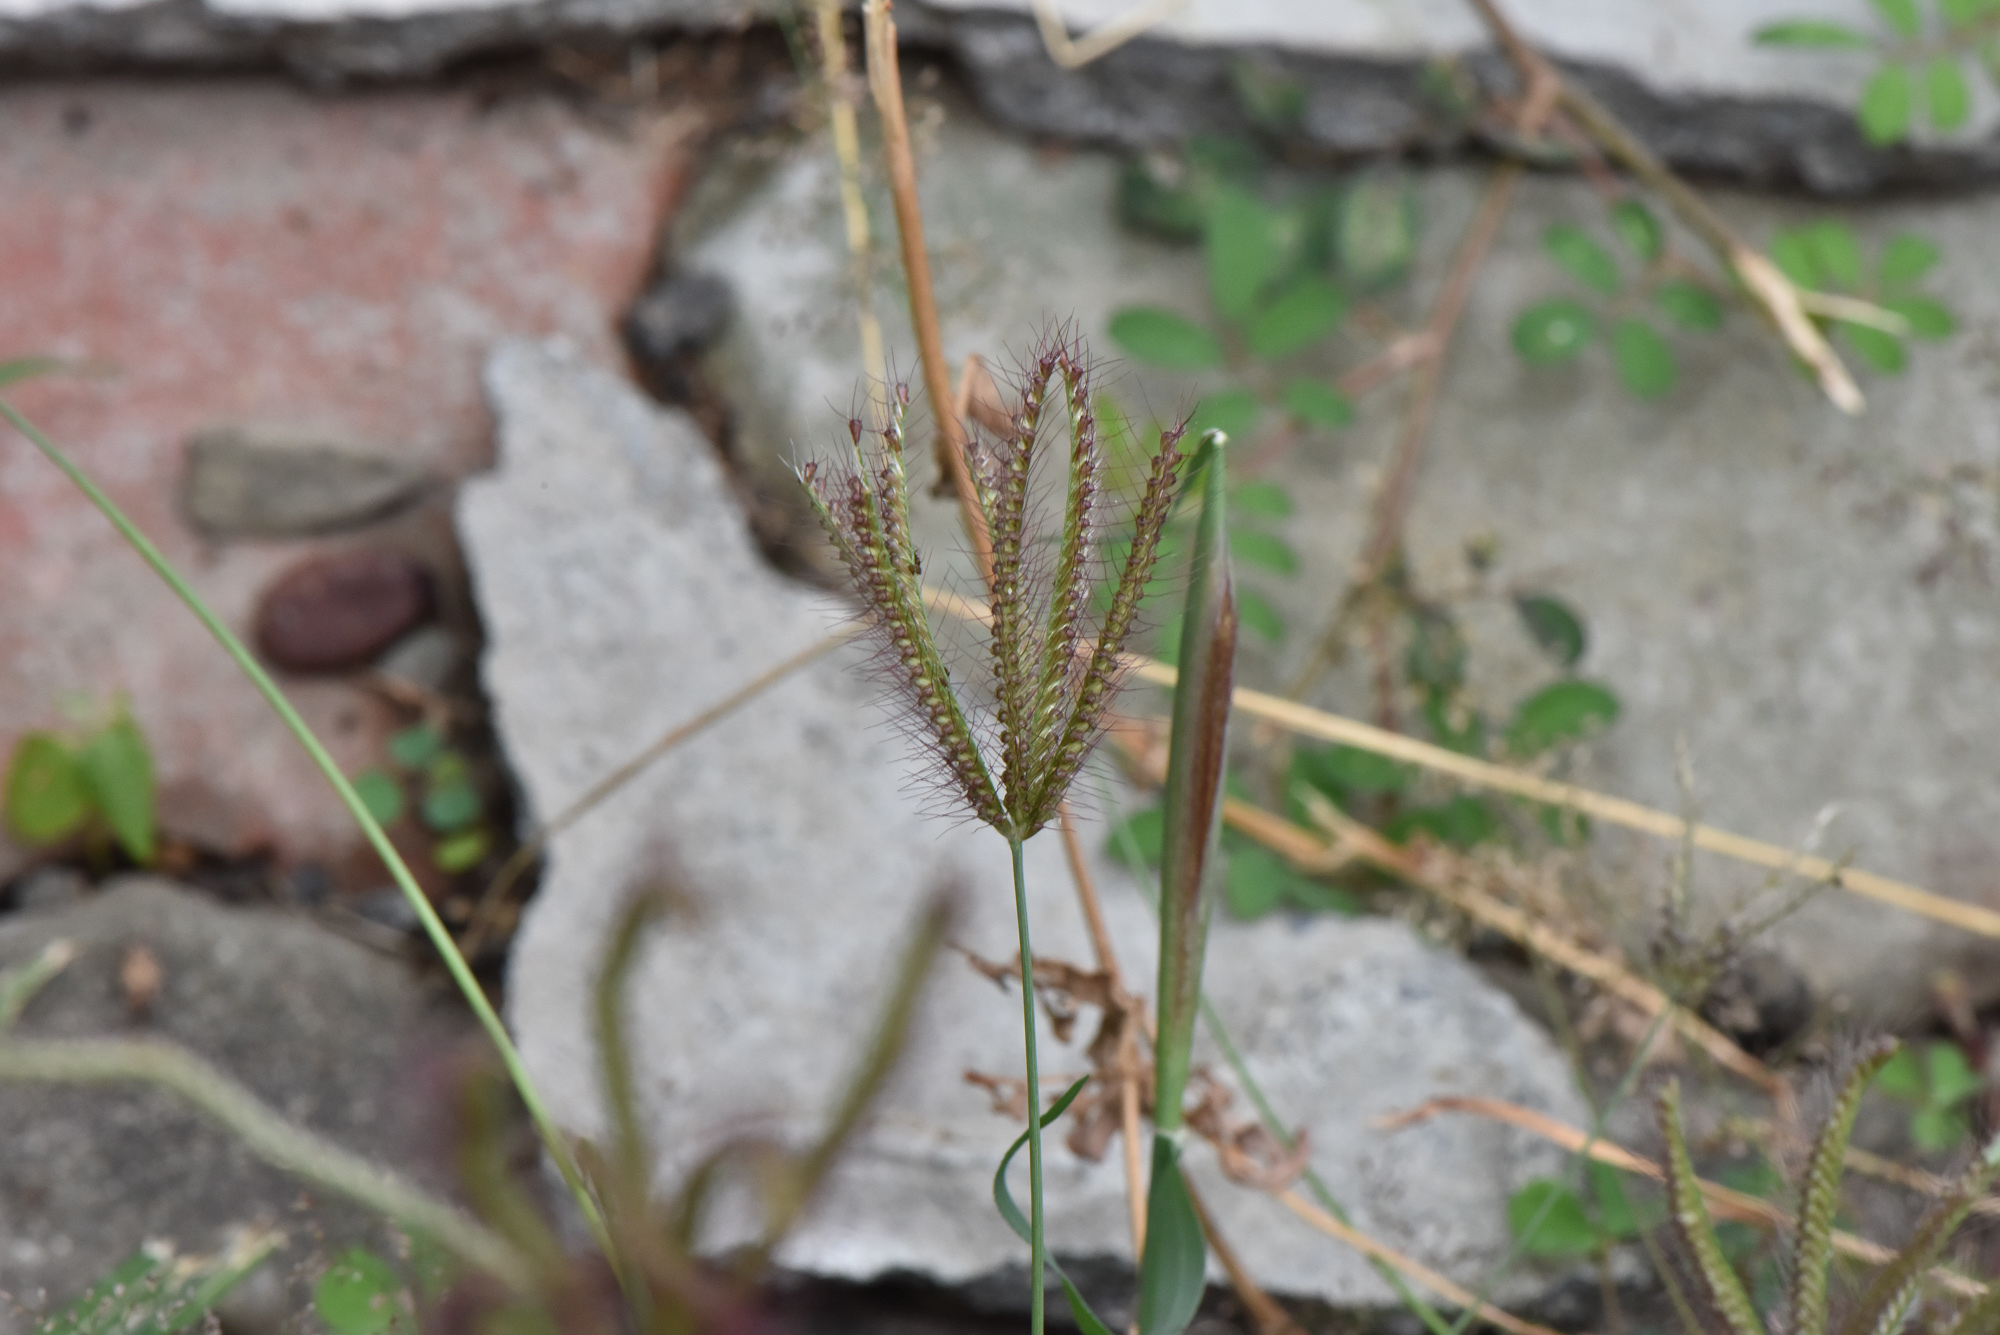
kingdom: Plantae
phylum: Tracheophyta
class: Liliopsida
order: Poales
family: Poaceae
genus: Chloris
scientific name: Chloris barbata
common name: Swollen fingergrass
